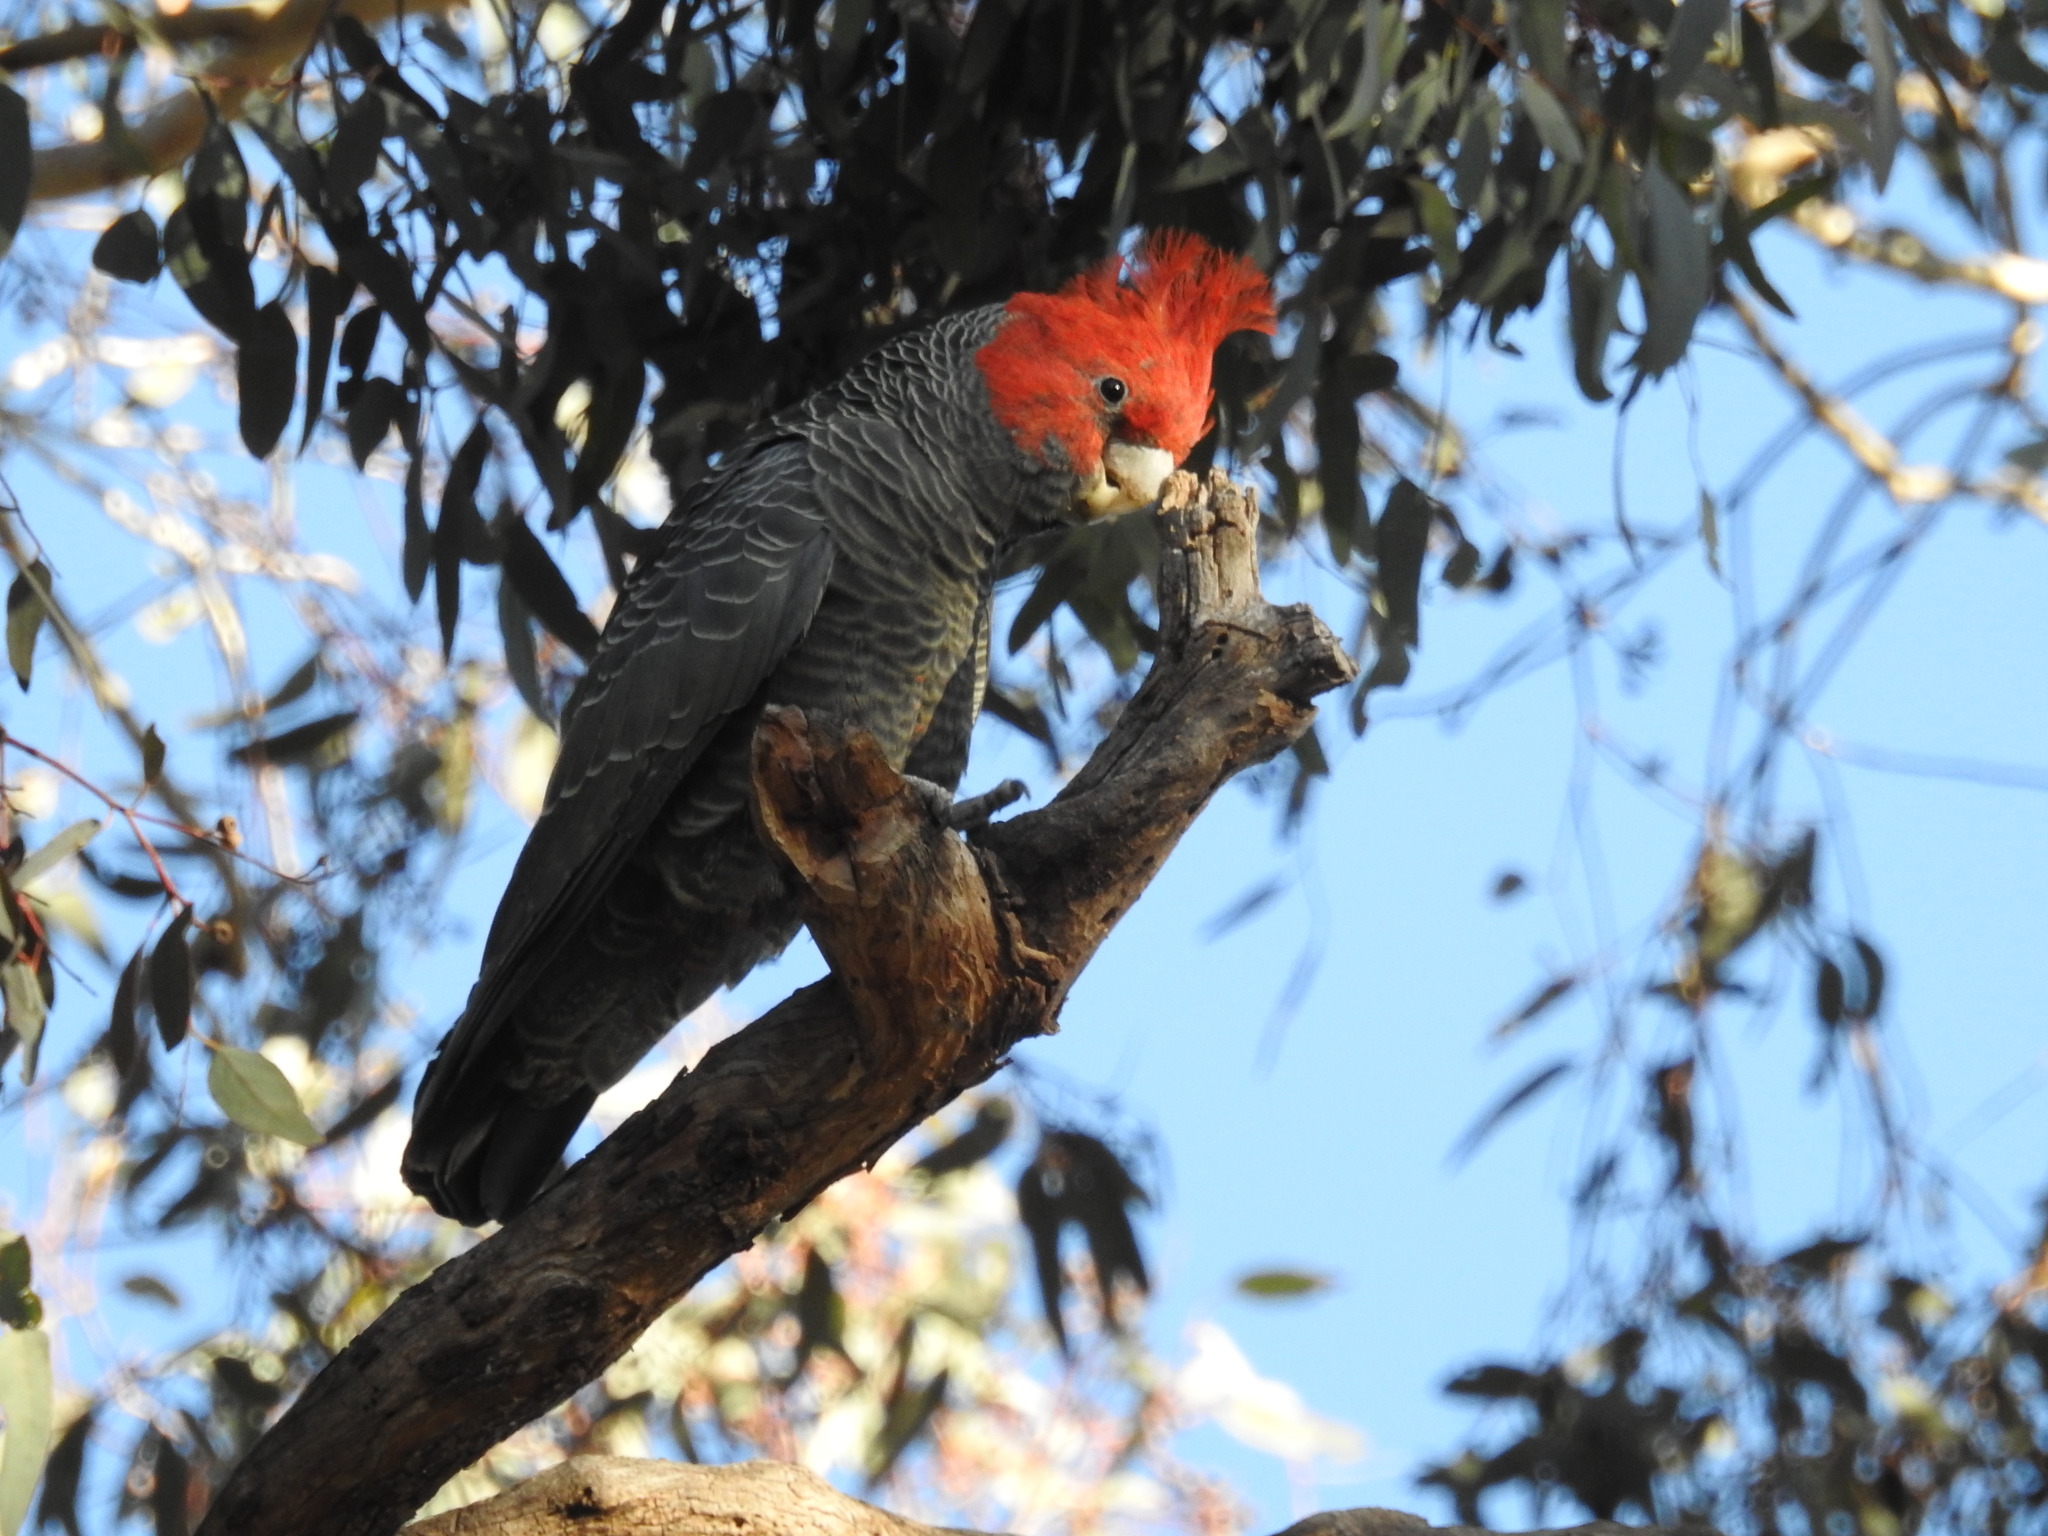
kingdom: Animalia
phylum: Chordata
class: Aves
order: Psittaciformes
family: Psittacidae
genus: Callocephalon
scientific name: Callocephalon fimbriatum
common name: Gang-gang cockatoo
